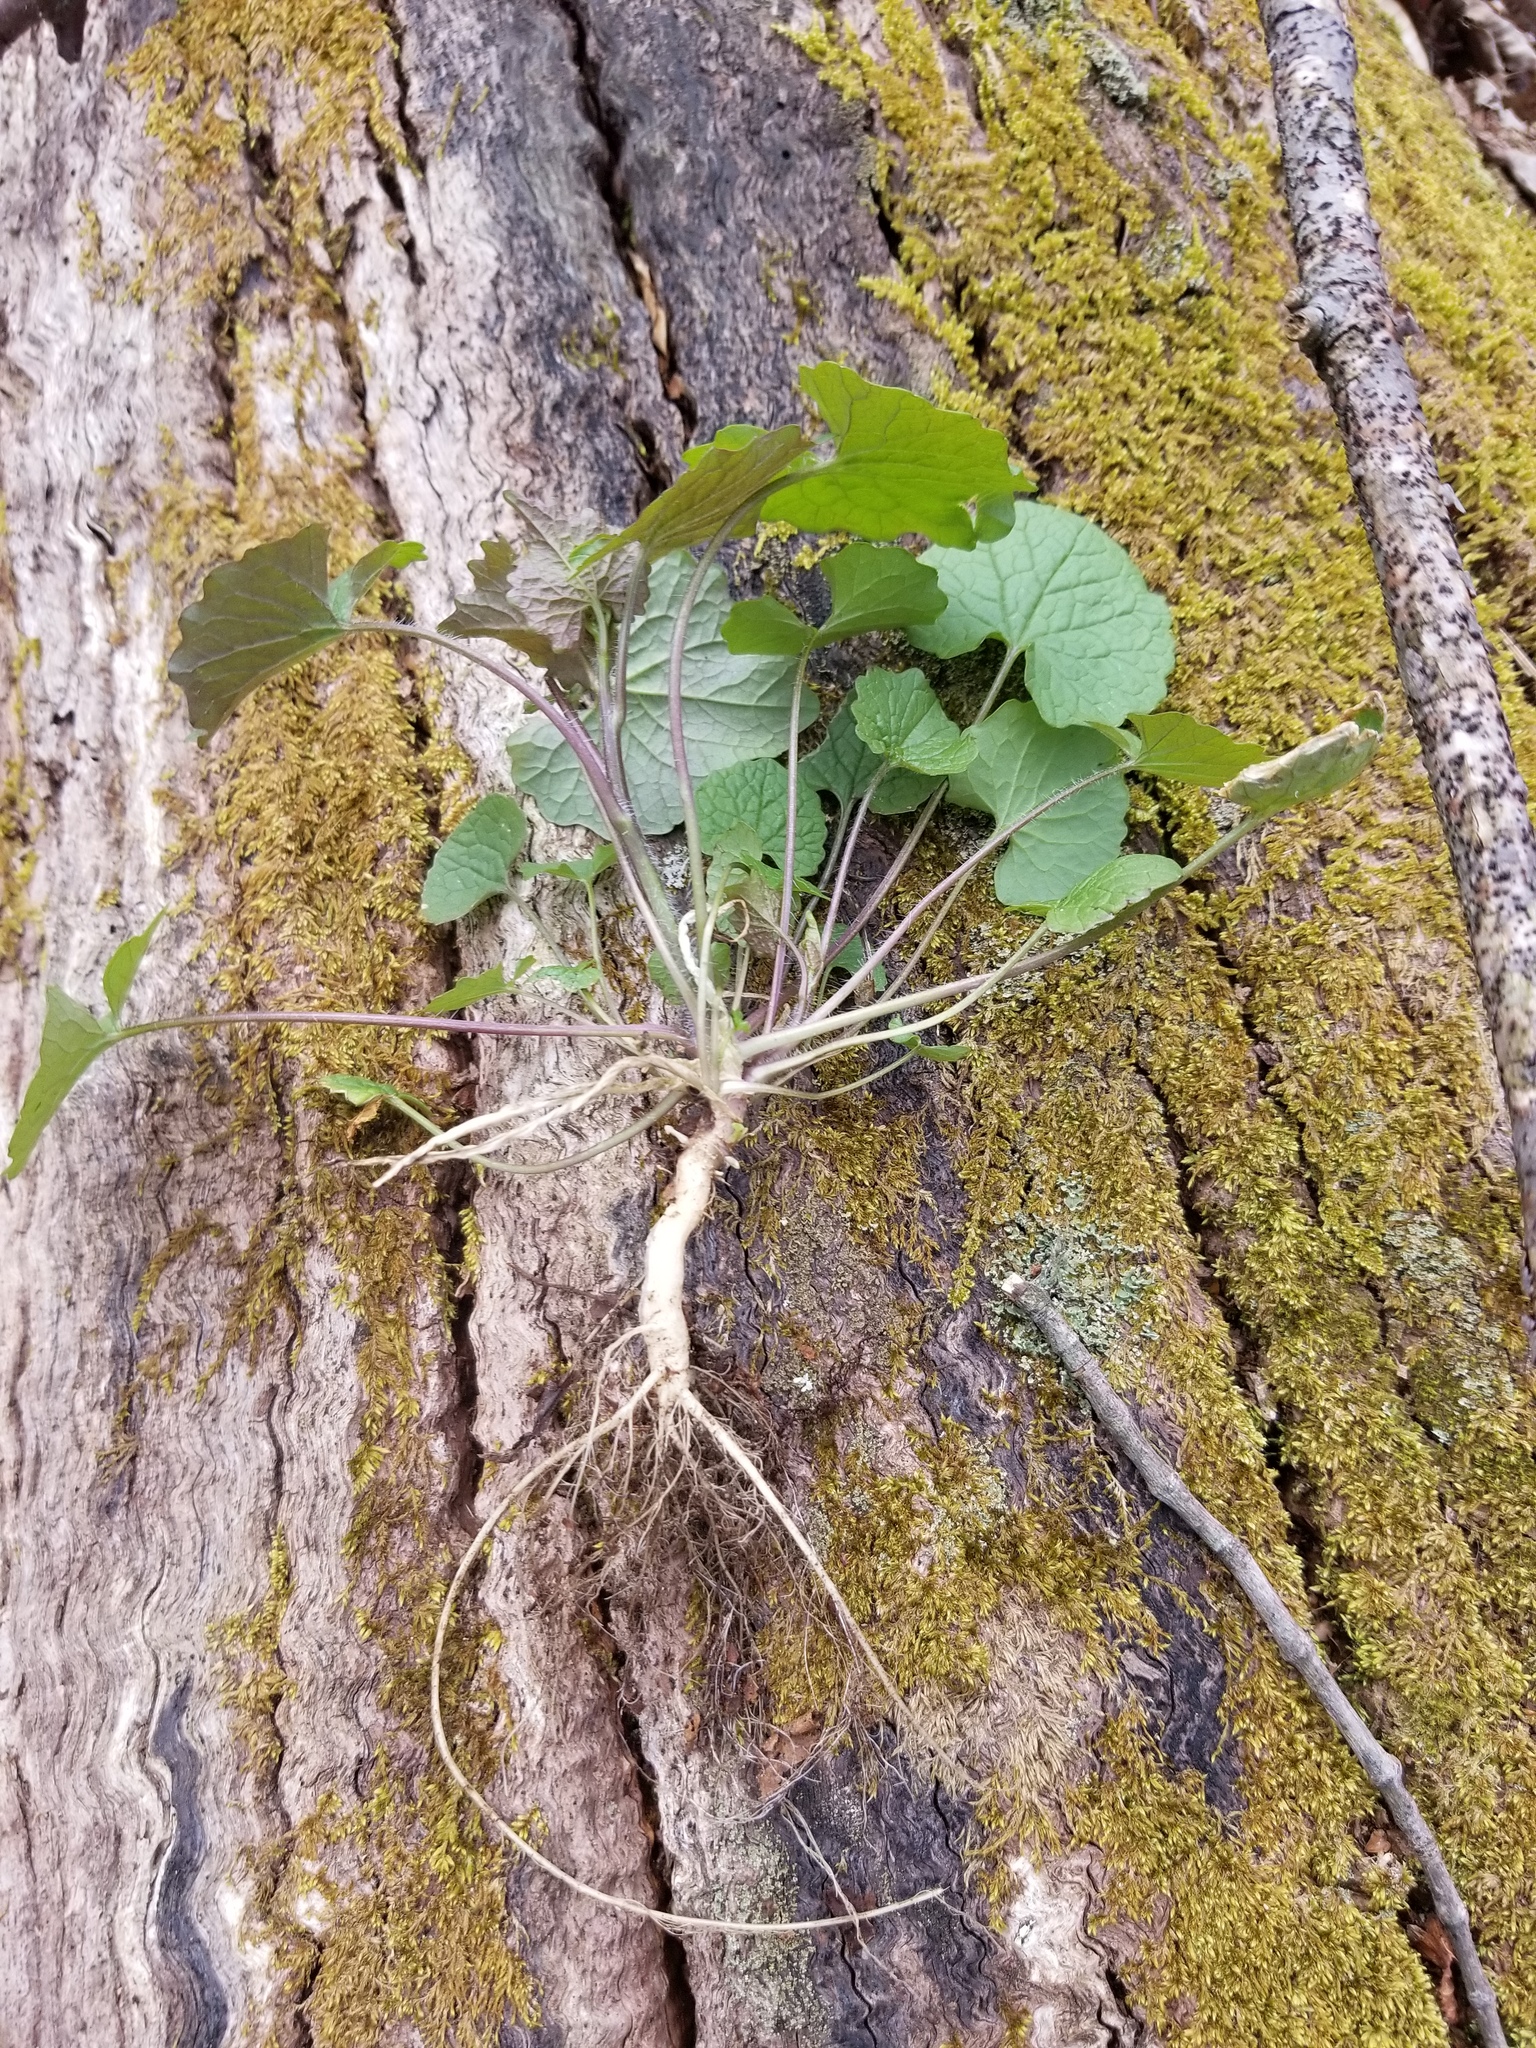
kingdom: Plantae
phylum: Tracheophyta
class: Magnoliopsida
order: Brassicales
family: Brassicaceae
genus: Alliaria
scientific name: Alliaria petiolata
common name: Garlic mustard
